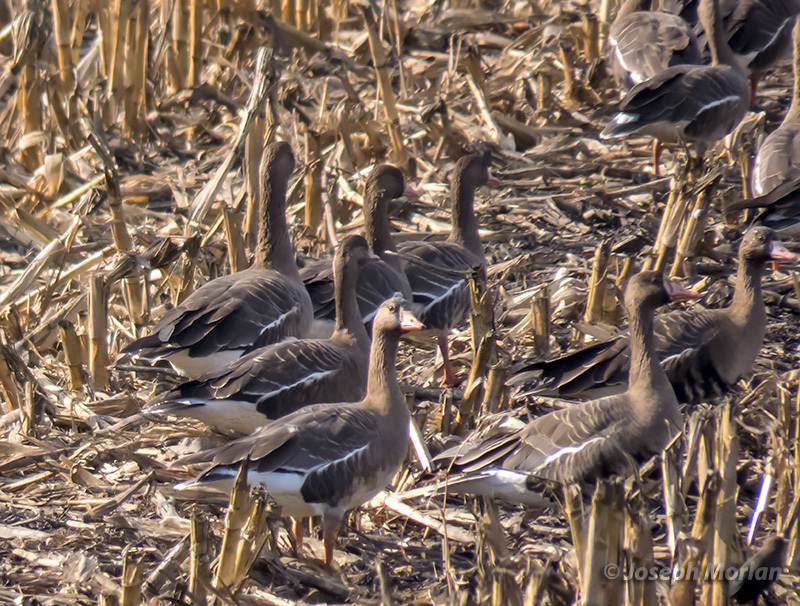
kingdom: Animalia
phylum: Chordata
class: Aves
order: Anseriformes
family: Anatidae
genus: Anser
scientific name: Anser albifrons
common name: Greater white-fronted goose
